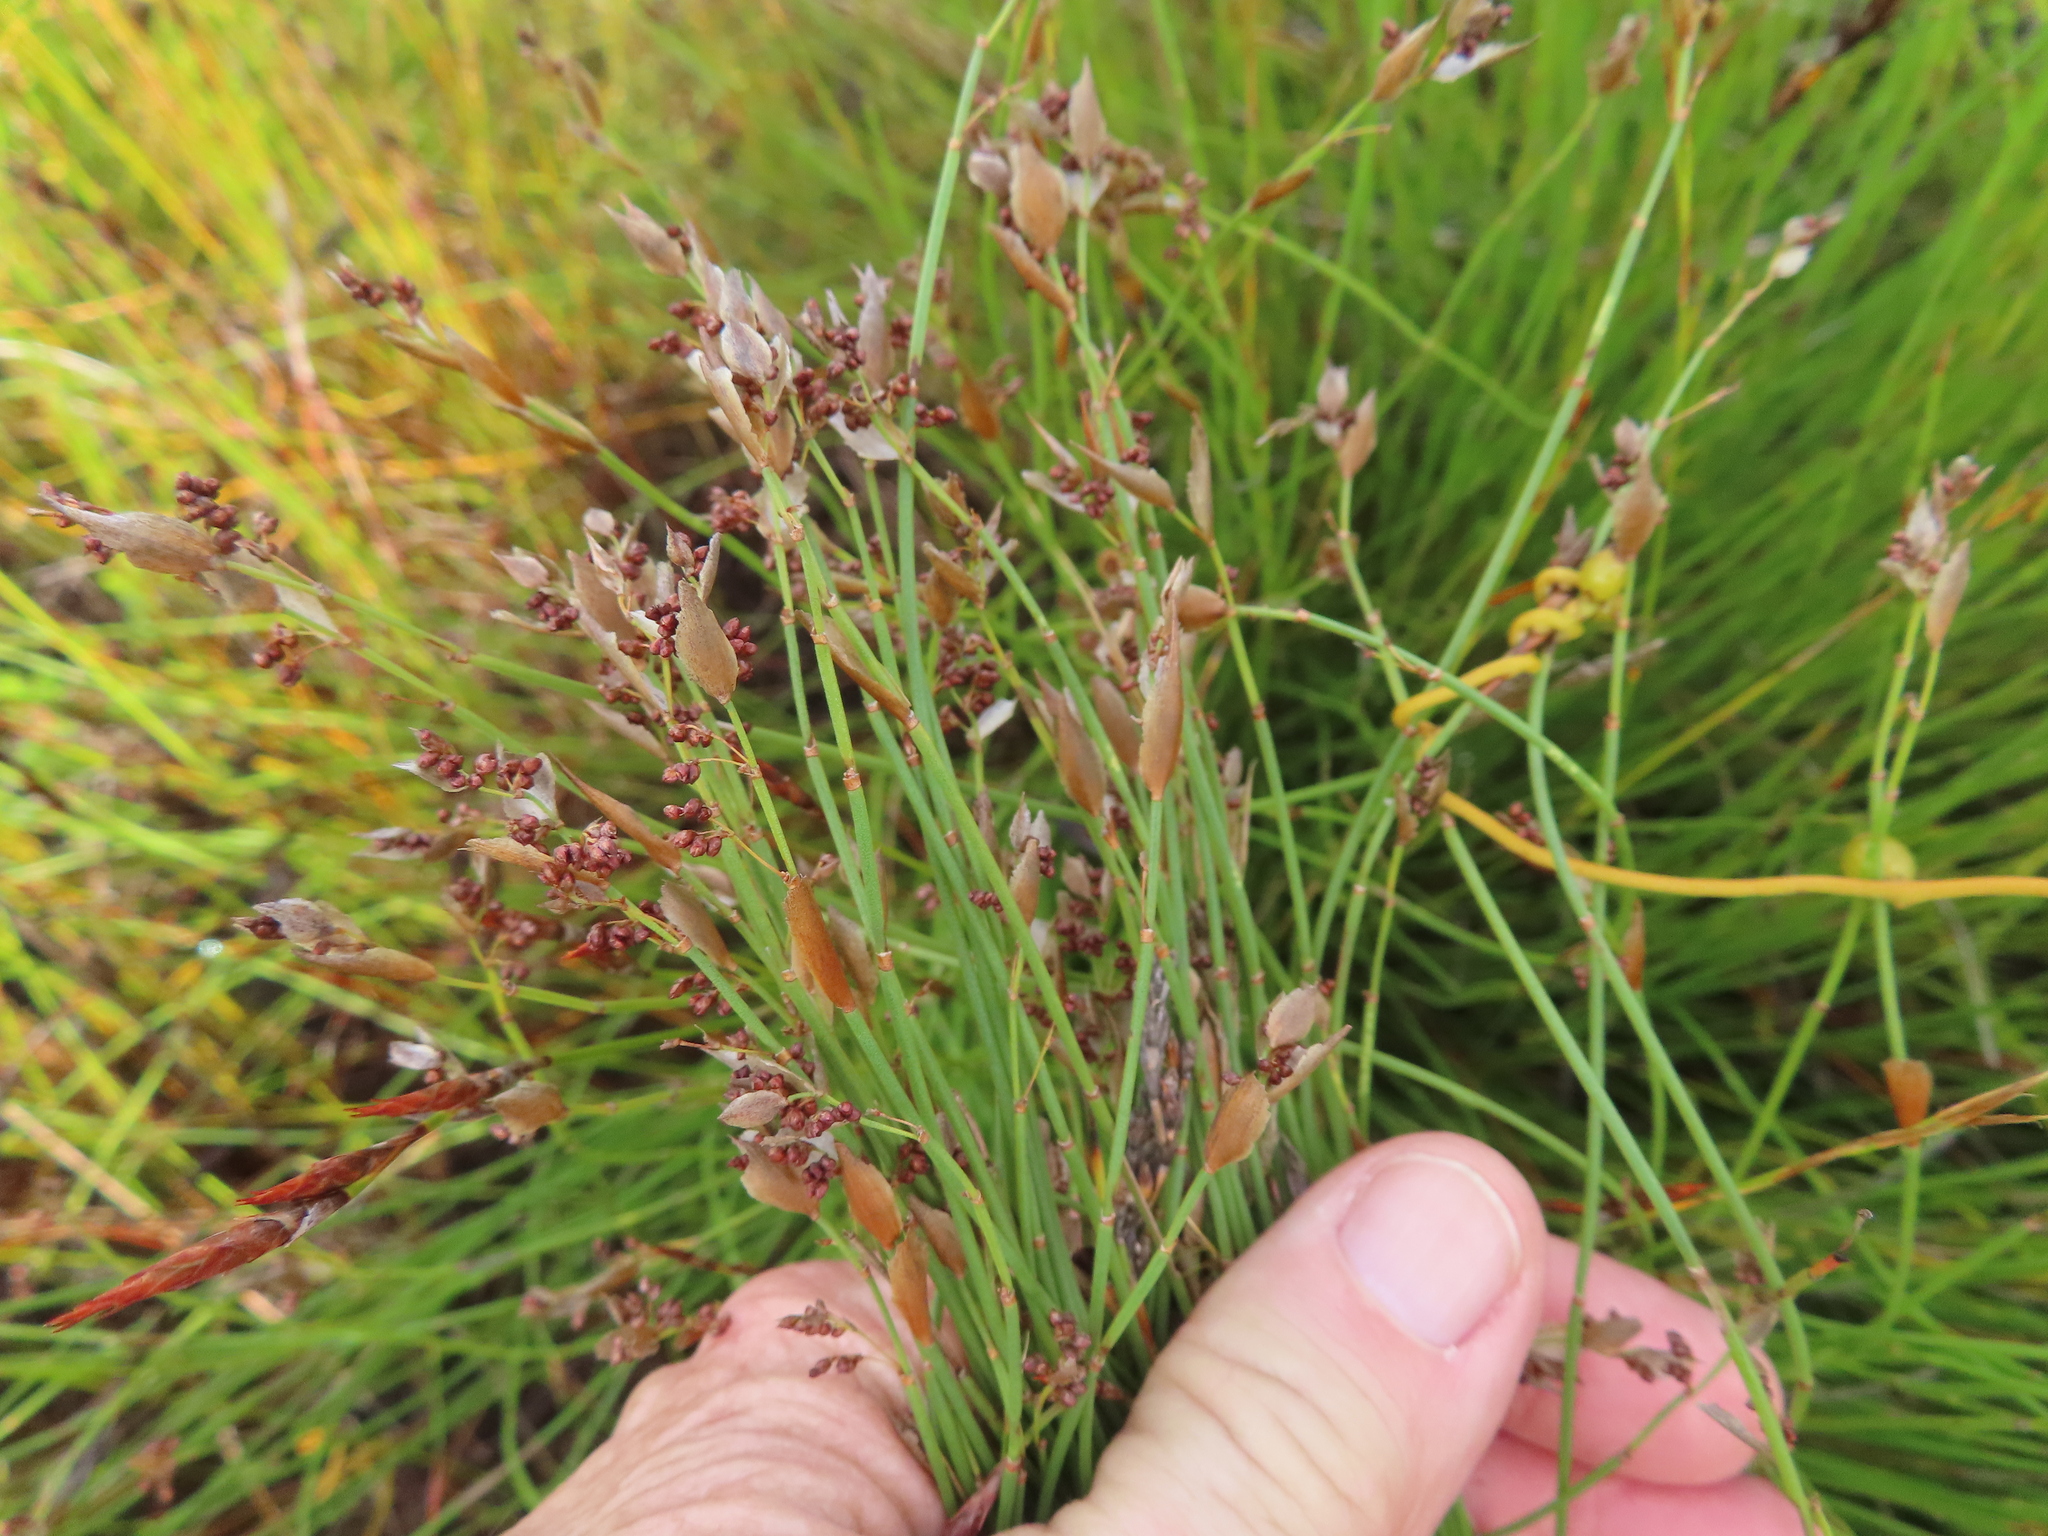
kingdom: Plantae
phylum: Tracheophyta
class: Liliopsida
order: Poales
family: Restionaceae
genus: Elegia
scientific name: Elegia filacea
